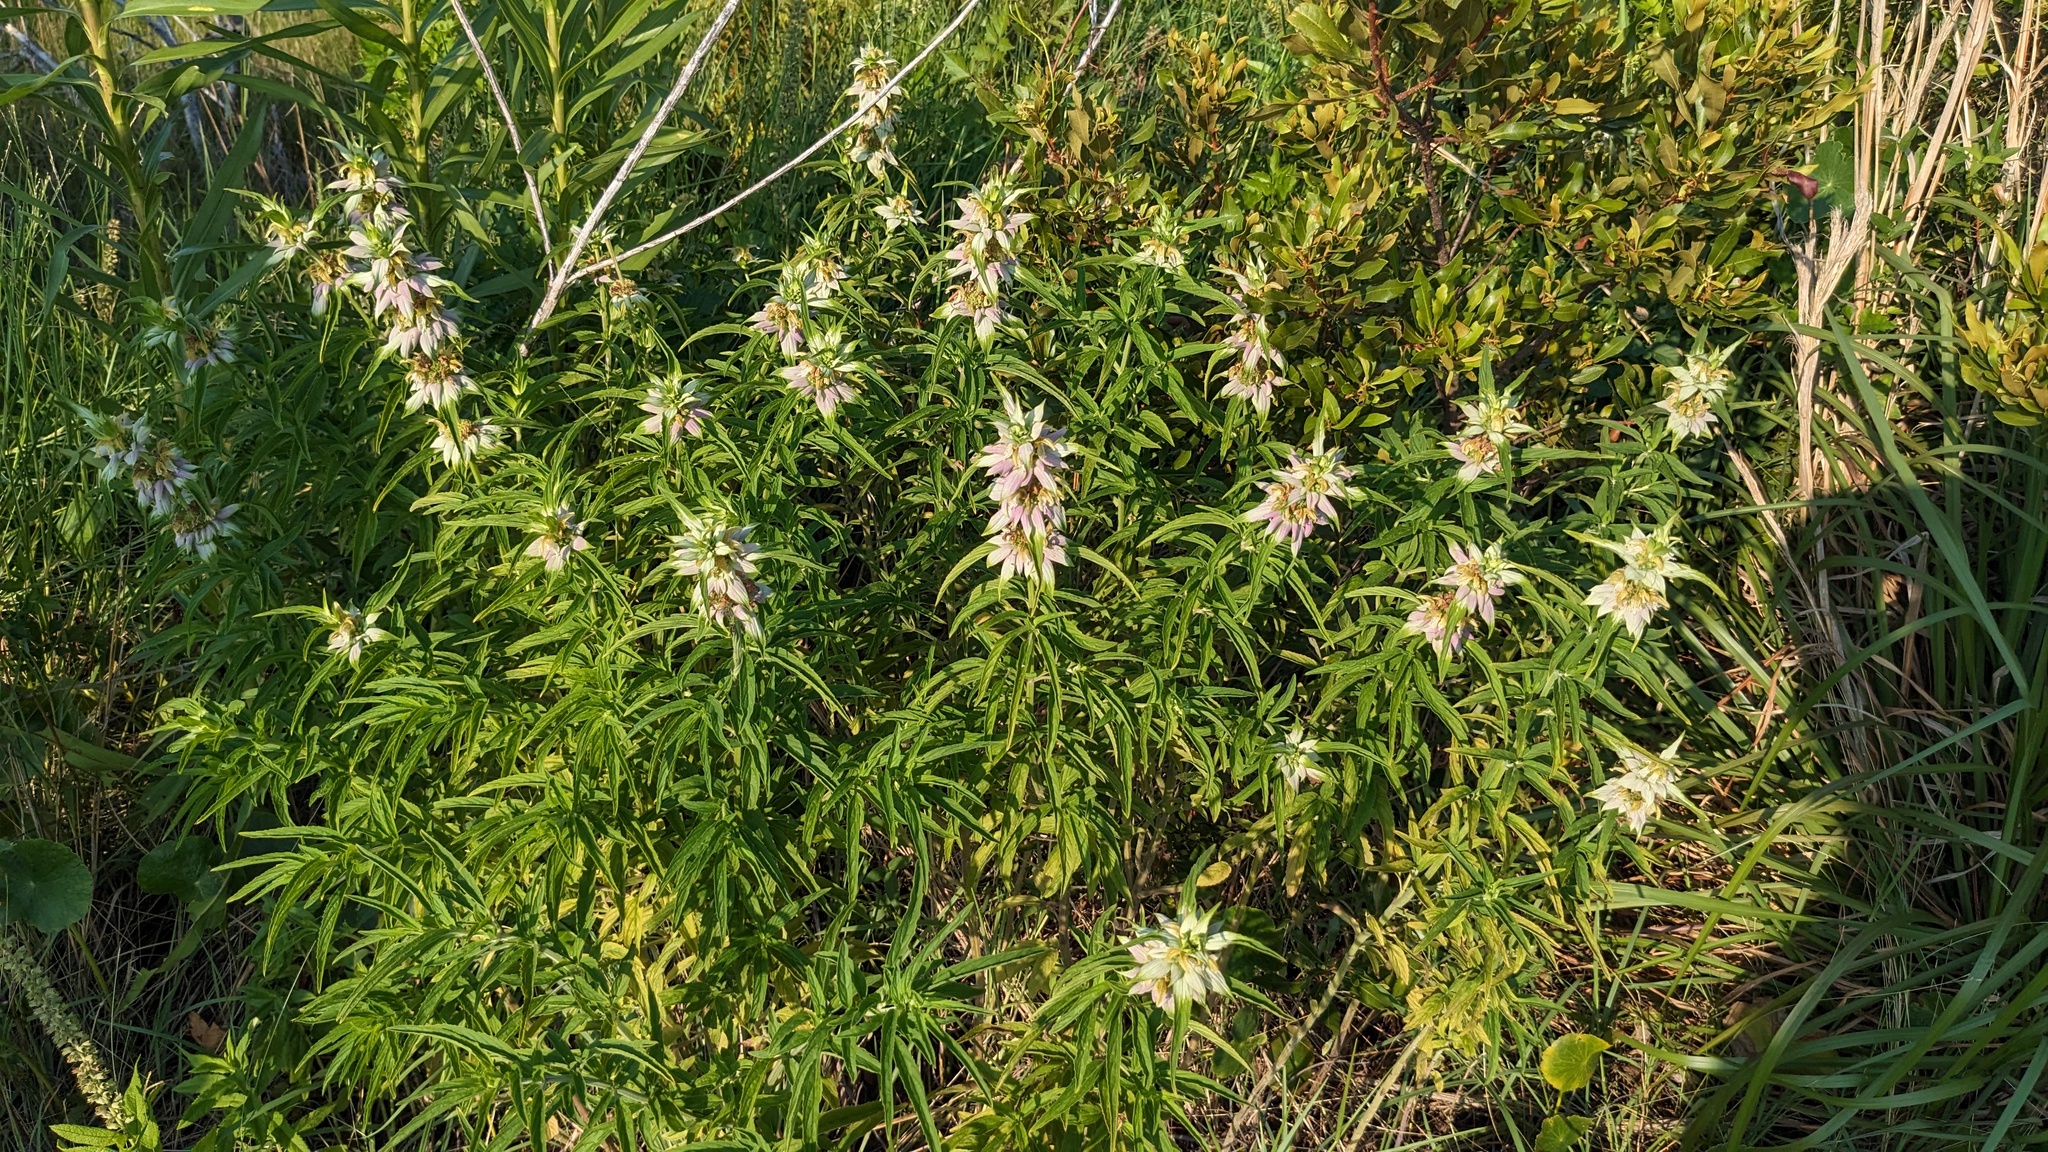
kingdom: Plantae
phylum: Tracheophyta
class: Magnoliopsida
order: Lamiales
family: Lamiaceae
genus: Monarda
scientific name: Monarda punctata
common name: Dotted monarda
